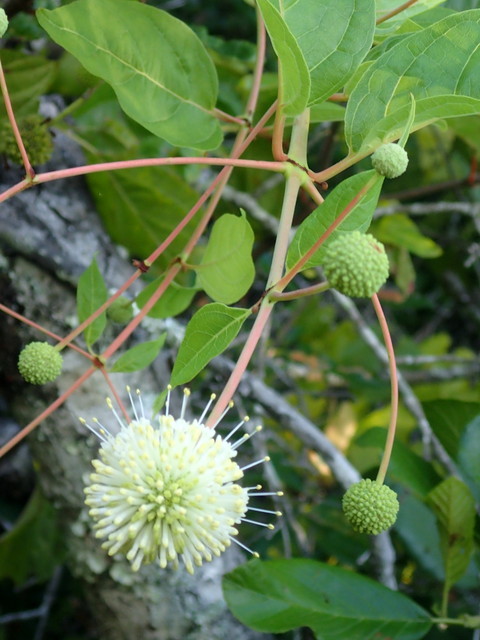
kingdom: Plantae
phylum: Tracheophyta
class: Magnoliopsida
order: Gentianales
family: Rubiaceae
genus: Cephalanthus
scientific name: Cephalanthus occidentalis
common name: Button-willow
